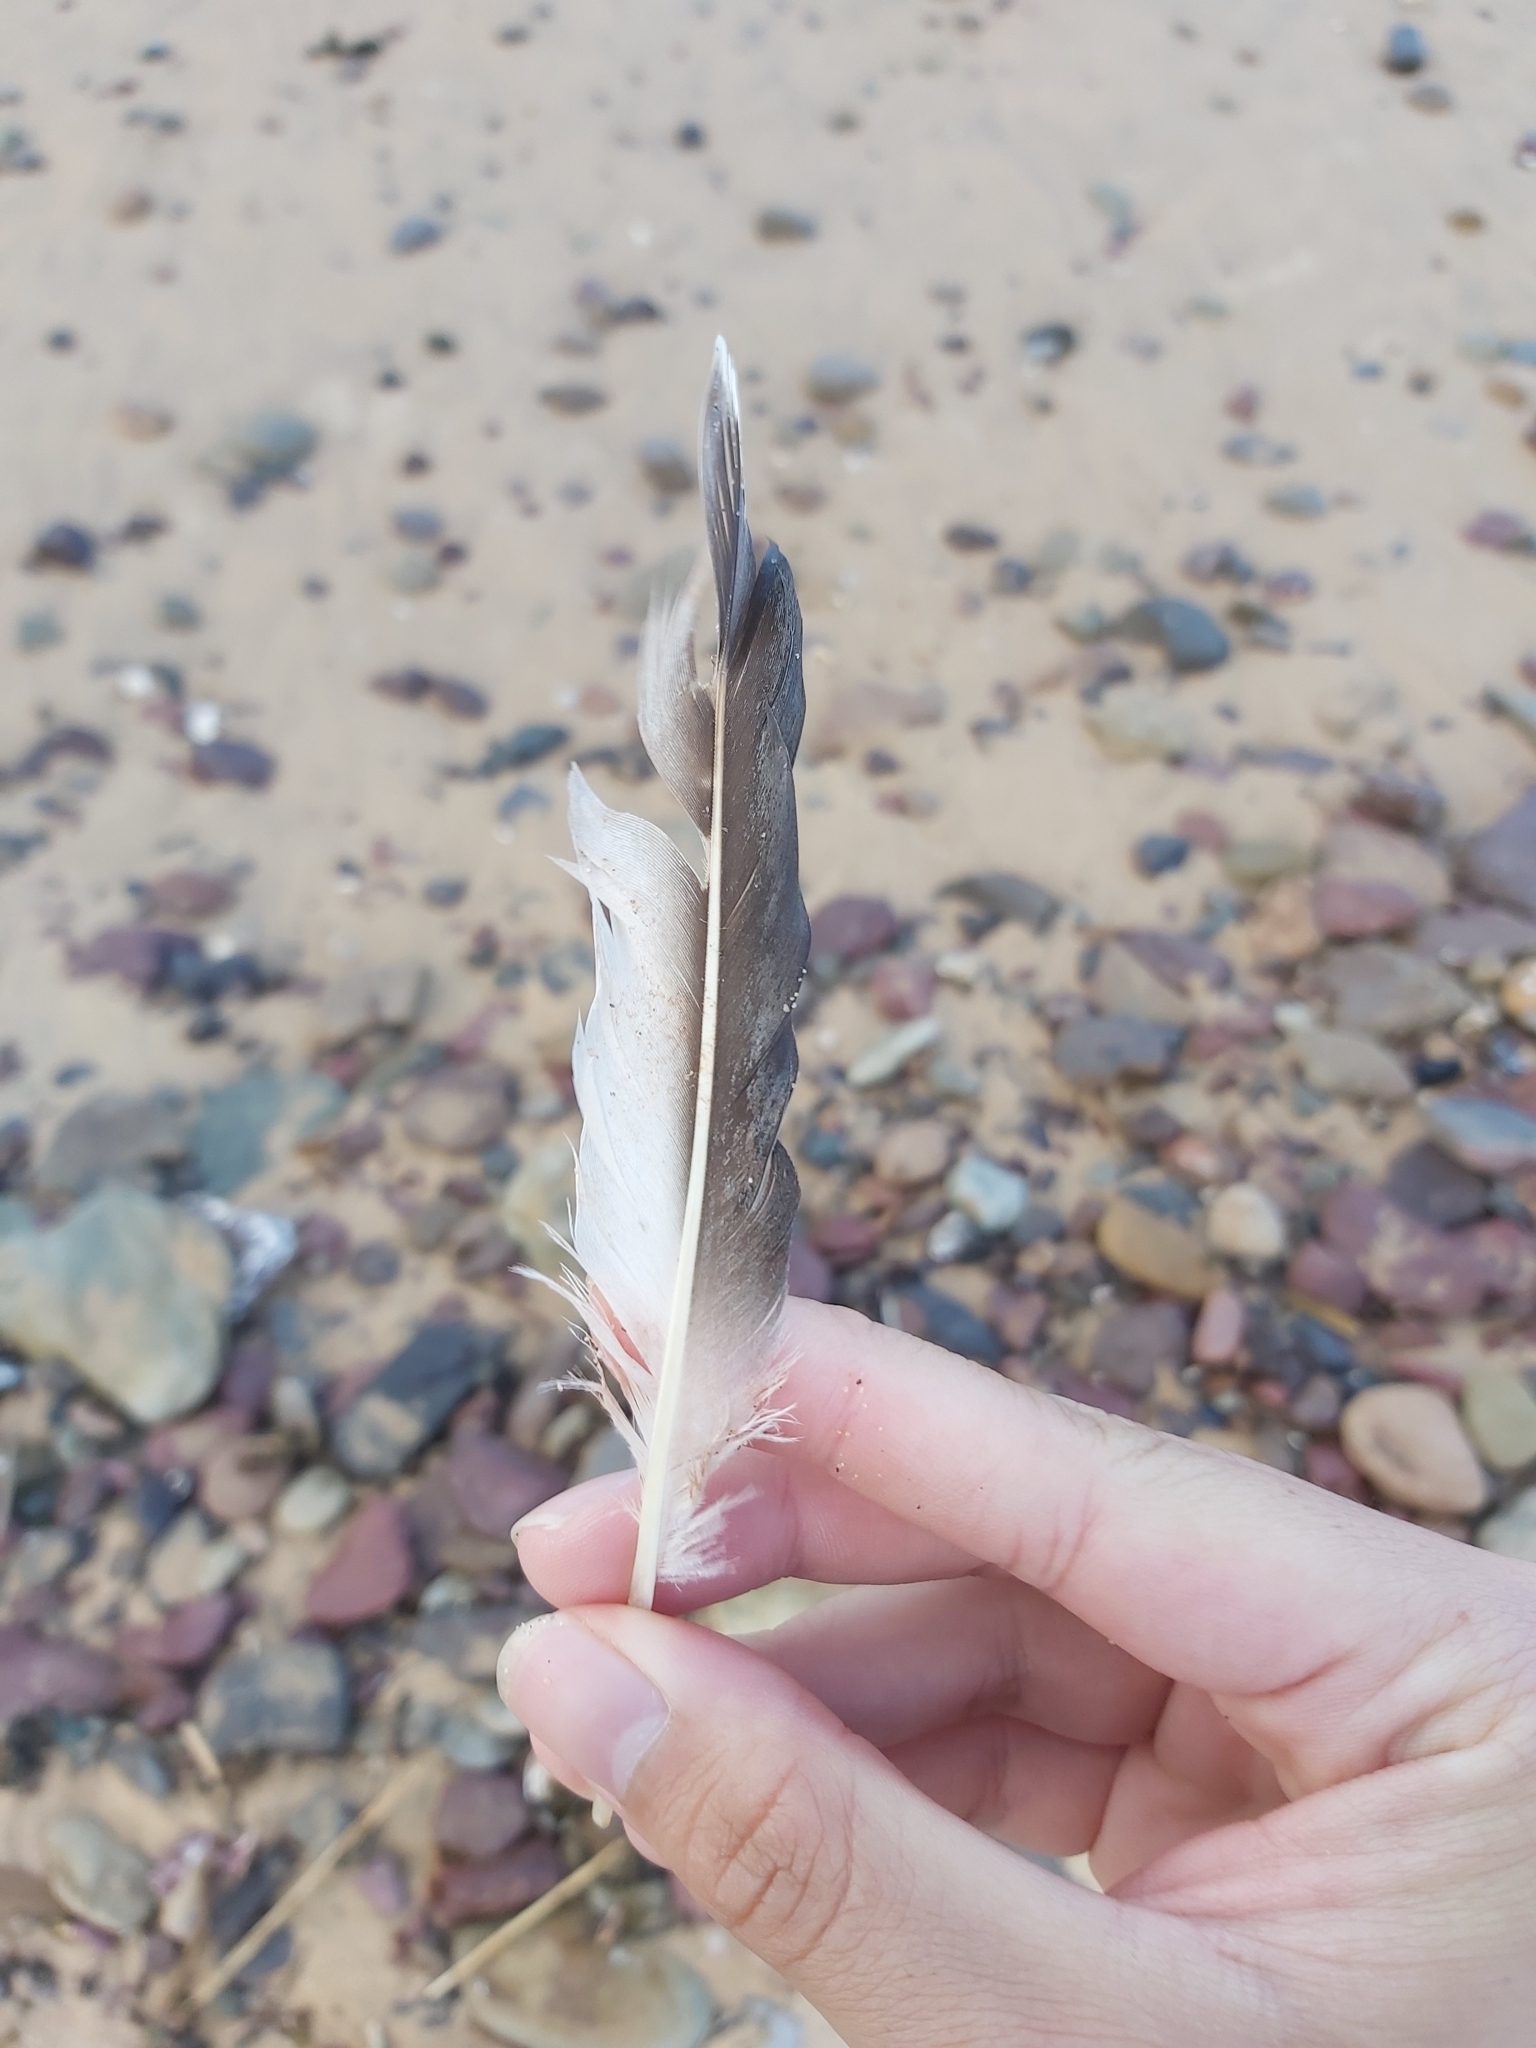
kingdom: Animalia
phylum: Chordata
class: Aves
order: Suliformes
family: Sulidae
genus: Morus
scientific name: Morus serrator
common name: Australasian gannet
